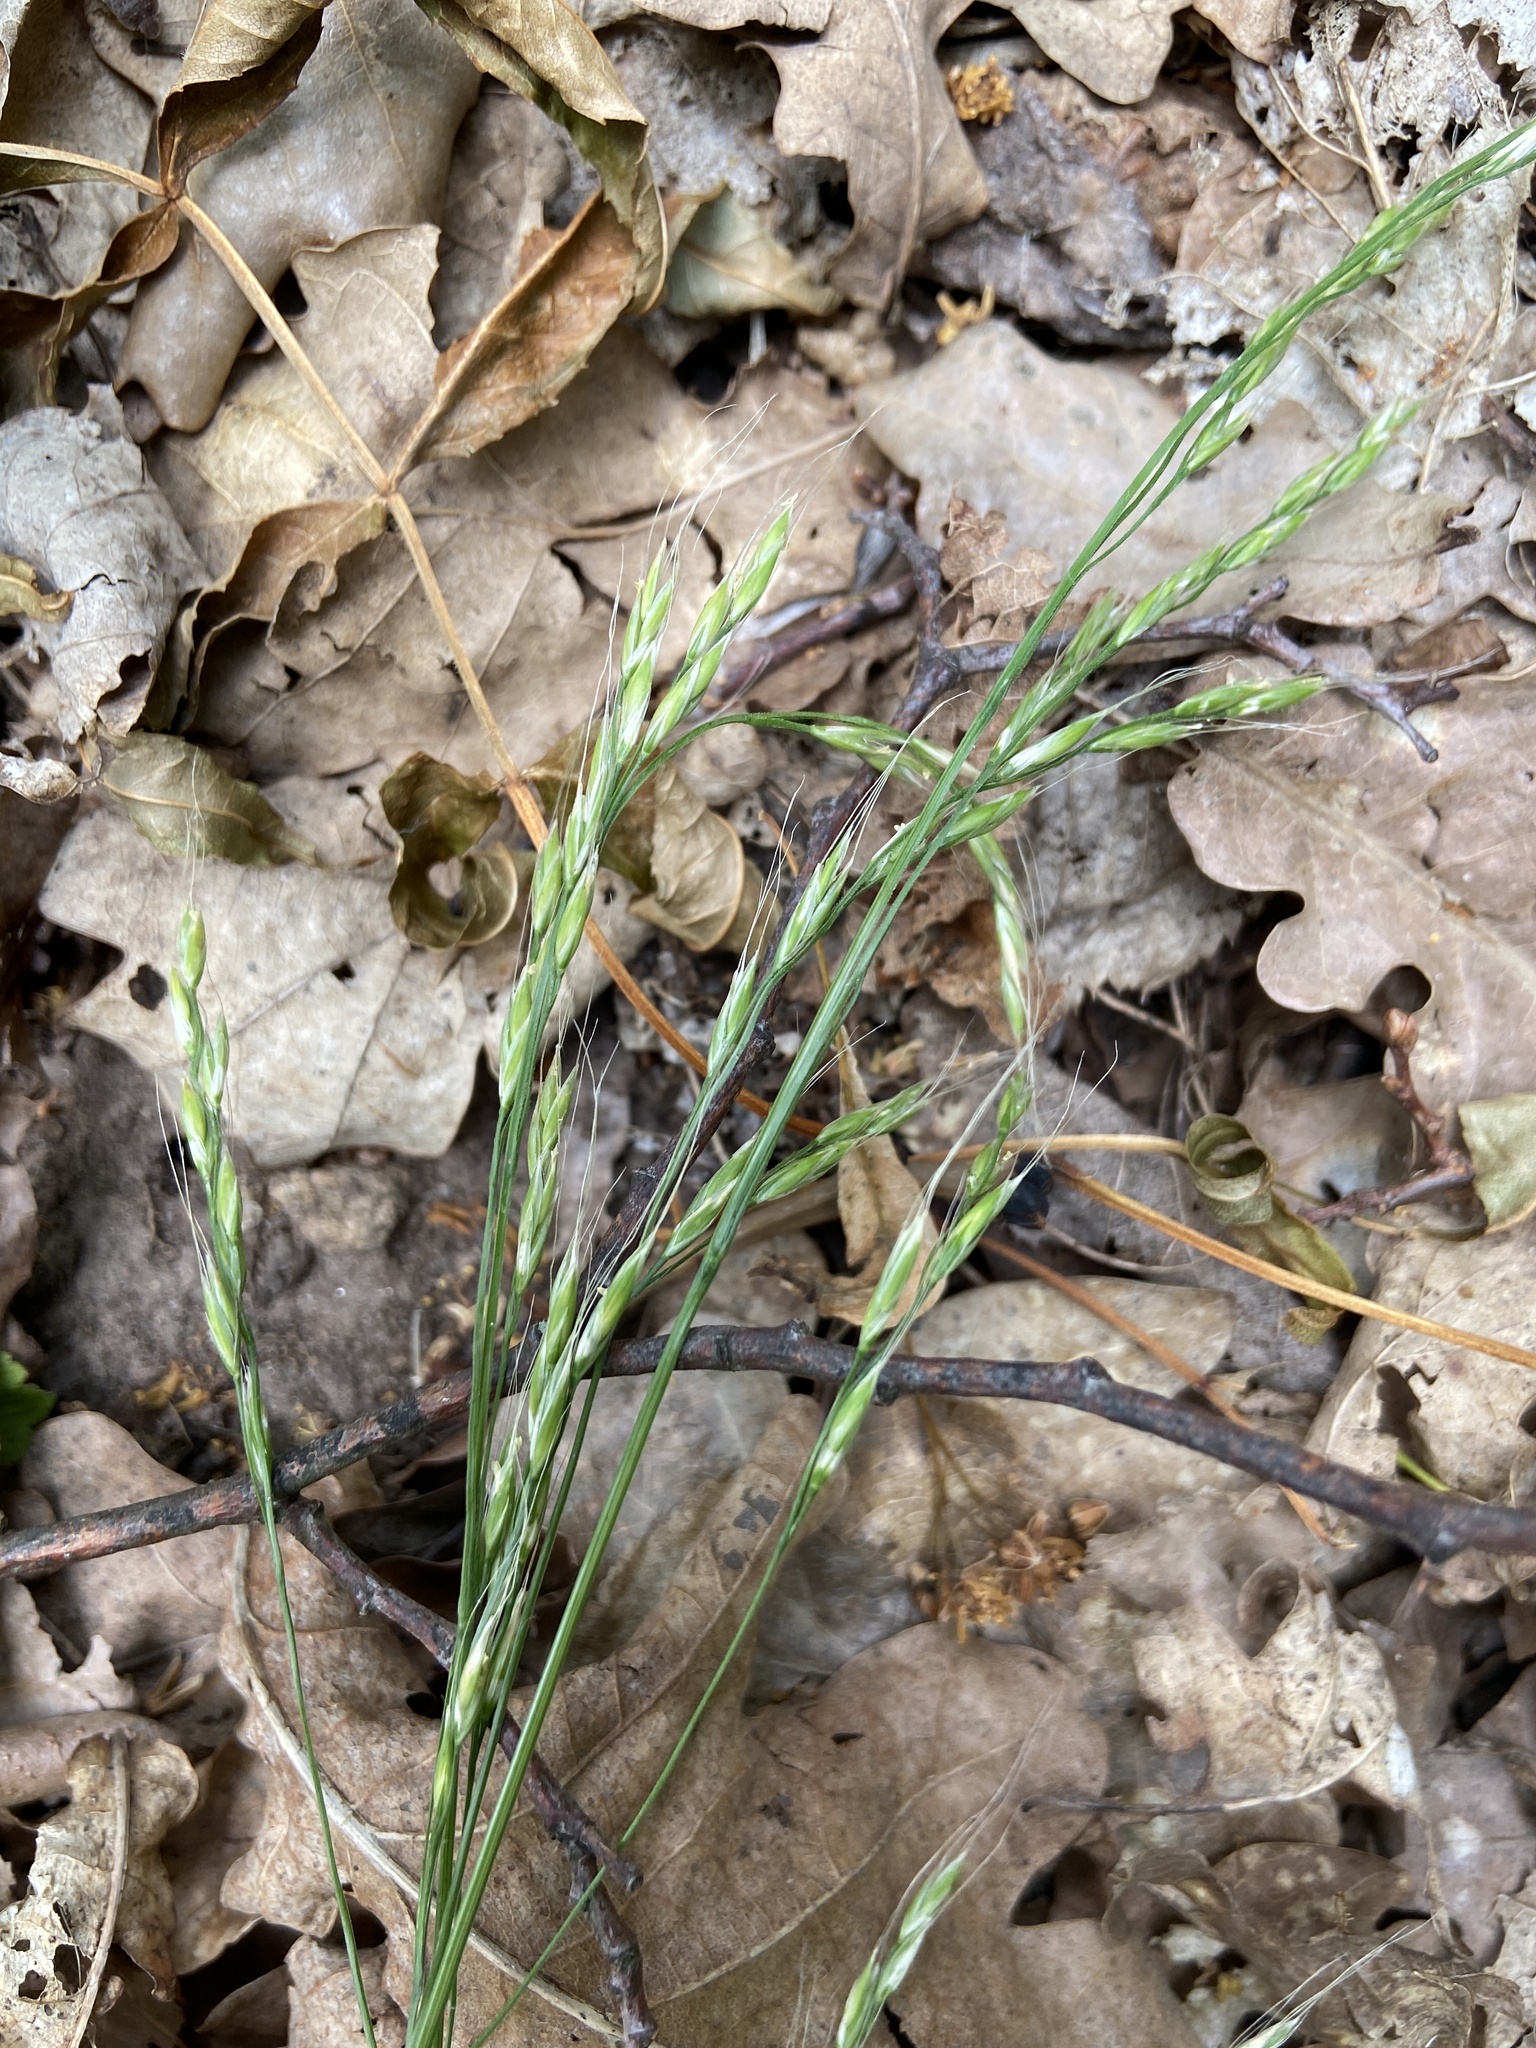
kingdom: Plantae
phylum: Tracheophyta
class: Liliopsida
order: Poales
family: Poaceae
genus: Lolium
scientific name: Lolium giganteum
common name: Giant fescue
